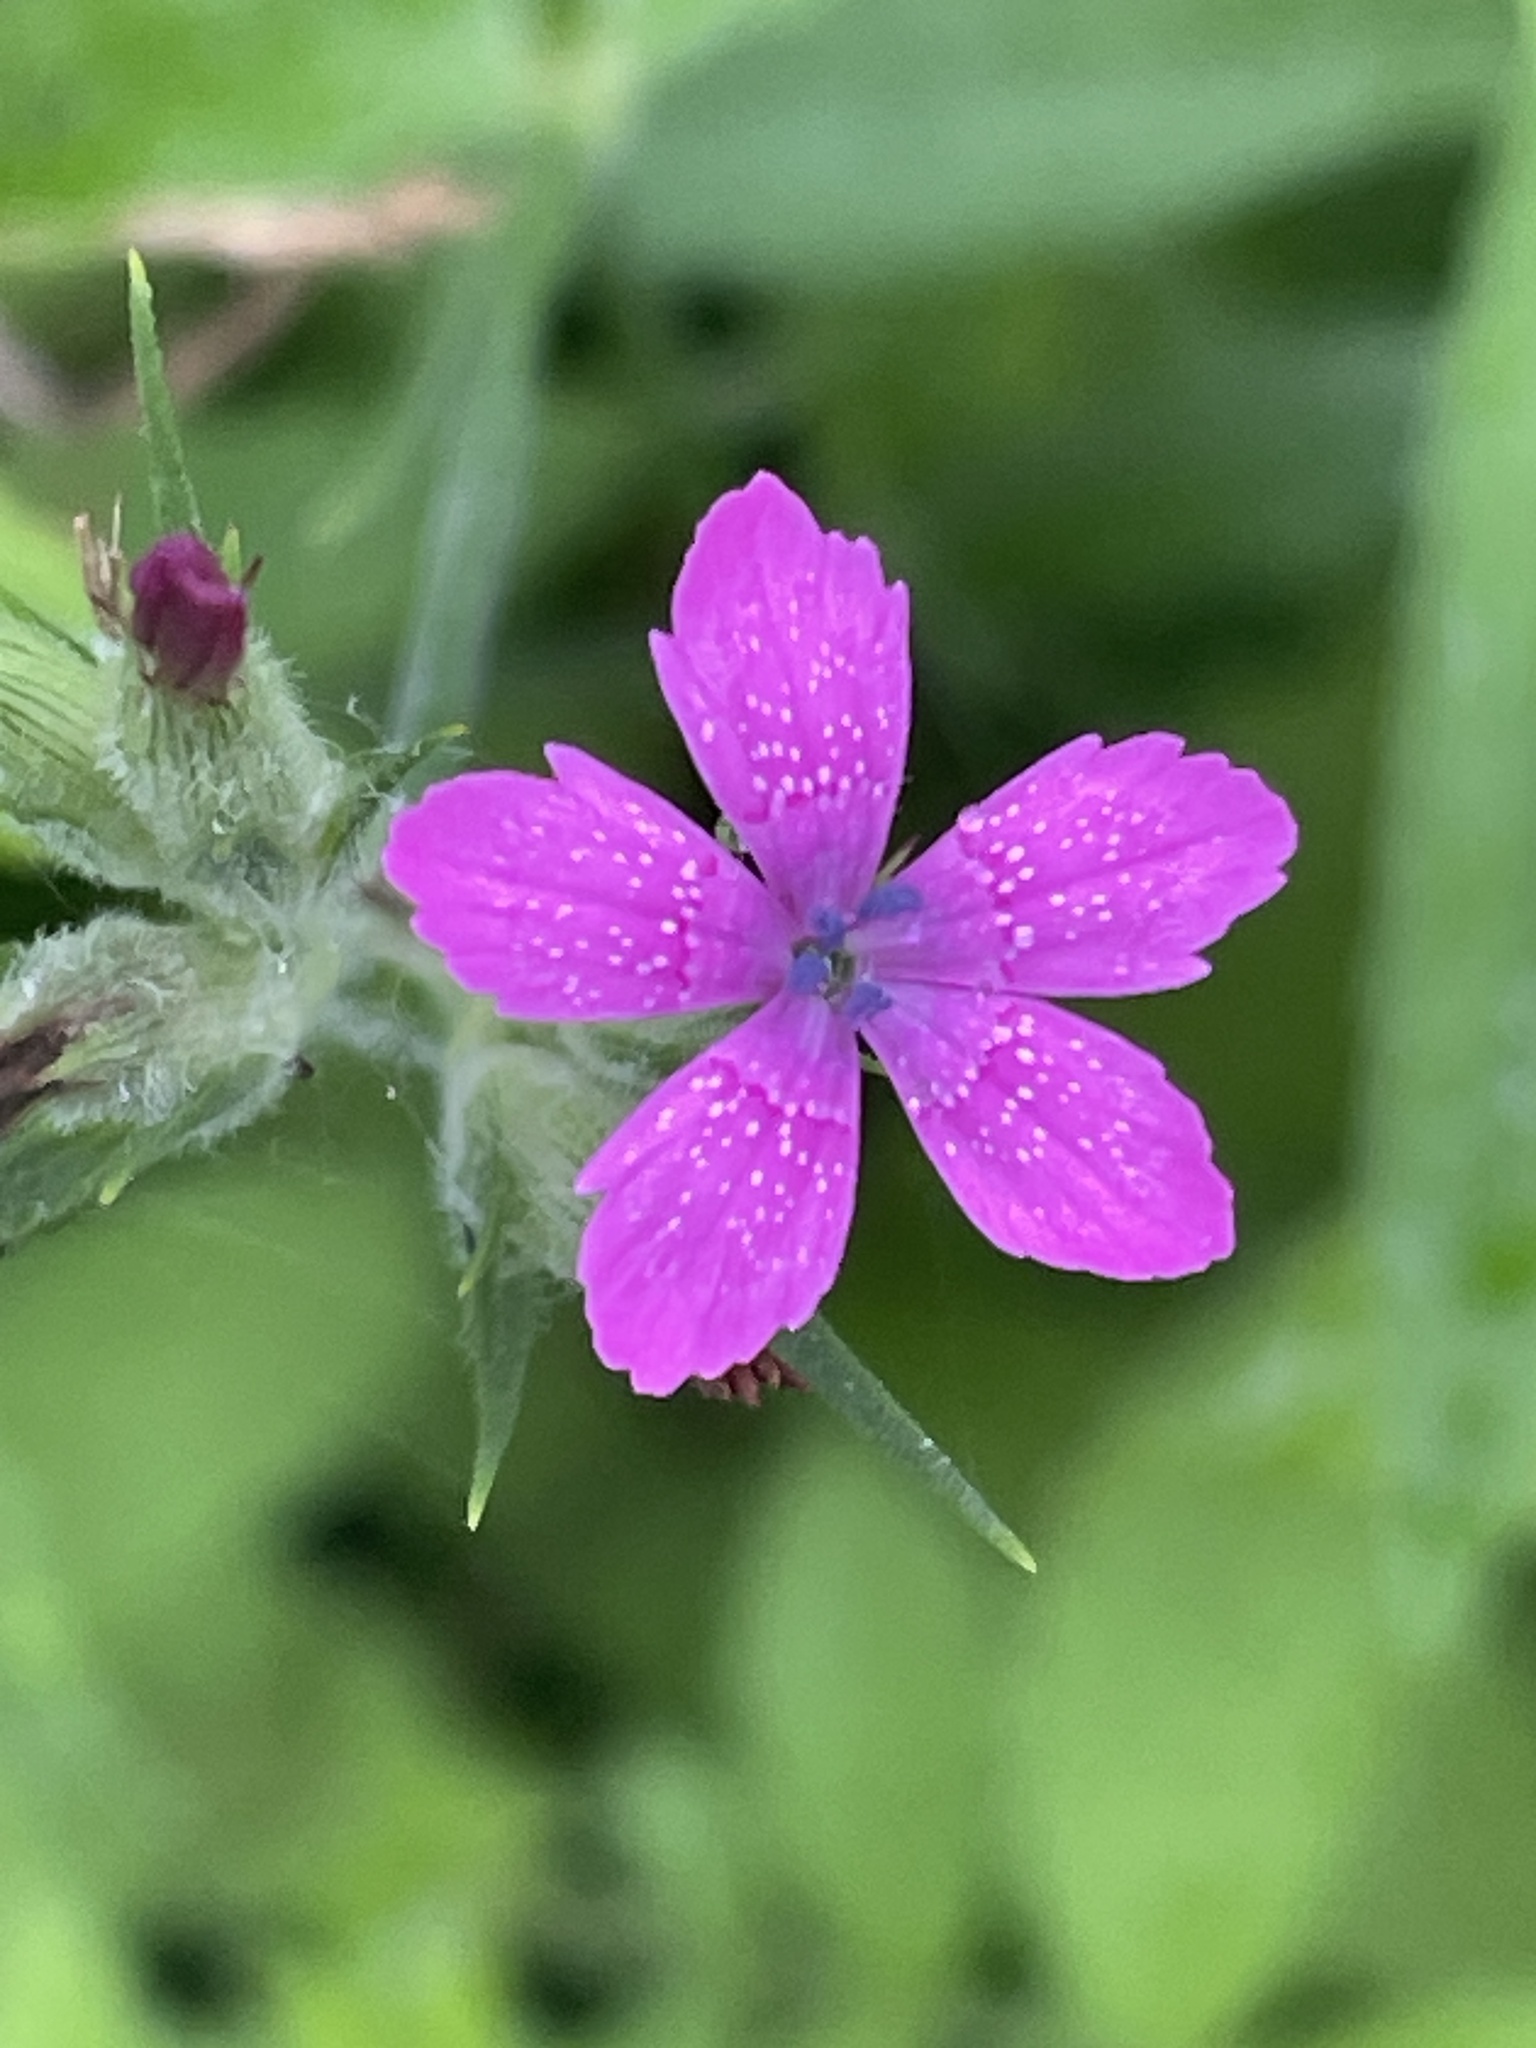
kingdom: Plantae
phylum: Tracheophyta
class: Magnoliopsida
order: Caryophyllales
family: Caryophyllaceae
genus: Dianthus
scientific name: Dianthus armeria
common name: Deptford pink
